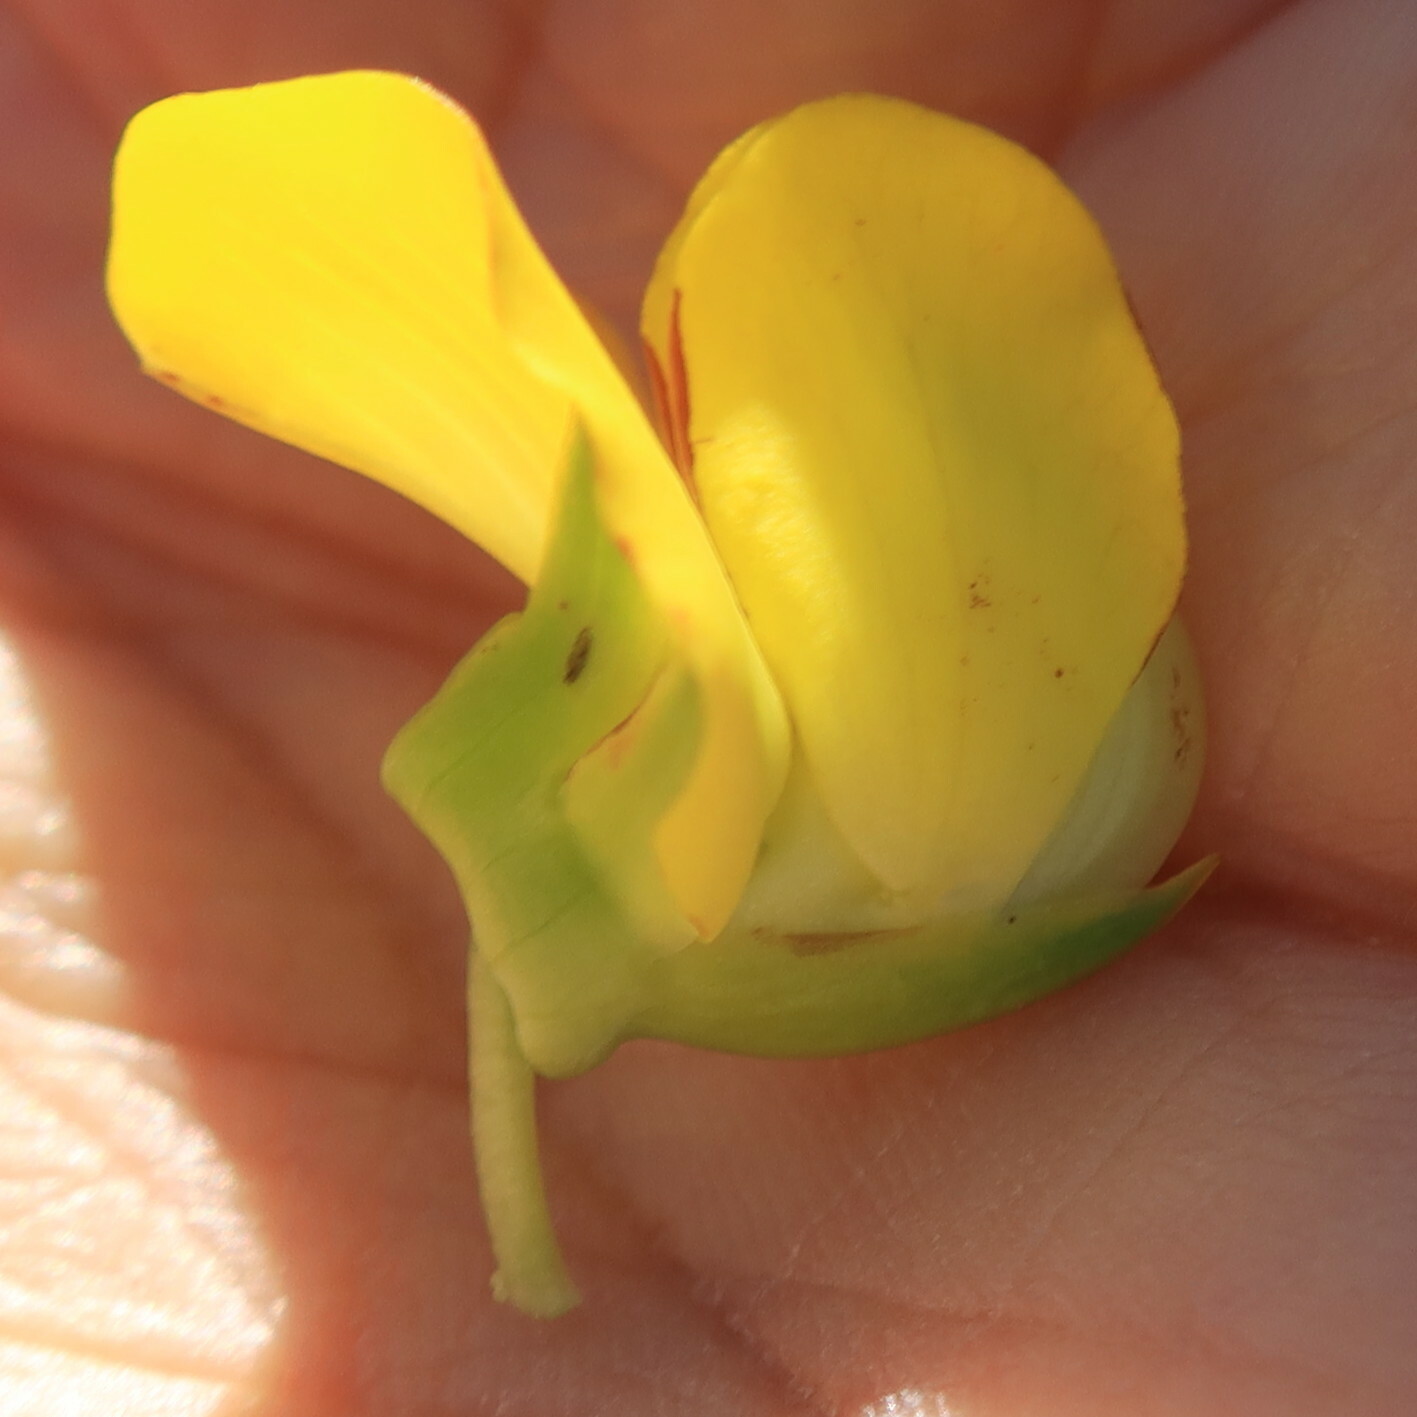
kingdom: Plantae
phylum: Tracheophyta
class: Magnoliopsida
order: Fabales
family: Fabaceae
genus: Cyclopia
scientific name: Cyclopia galioides
